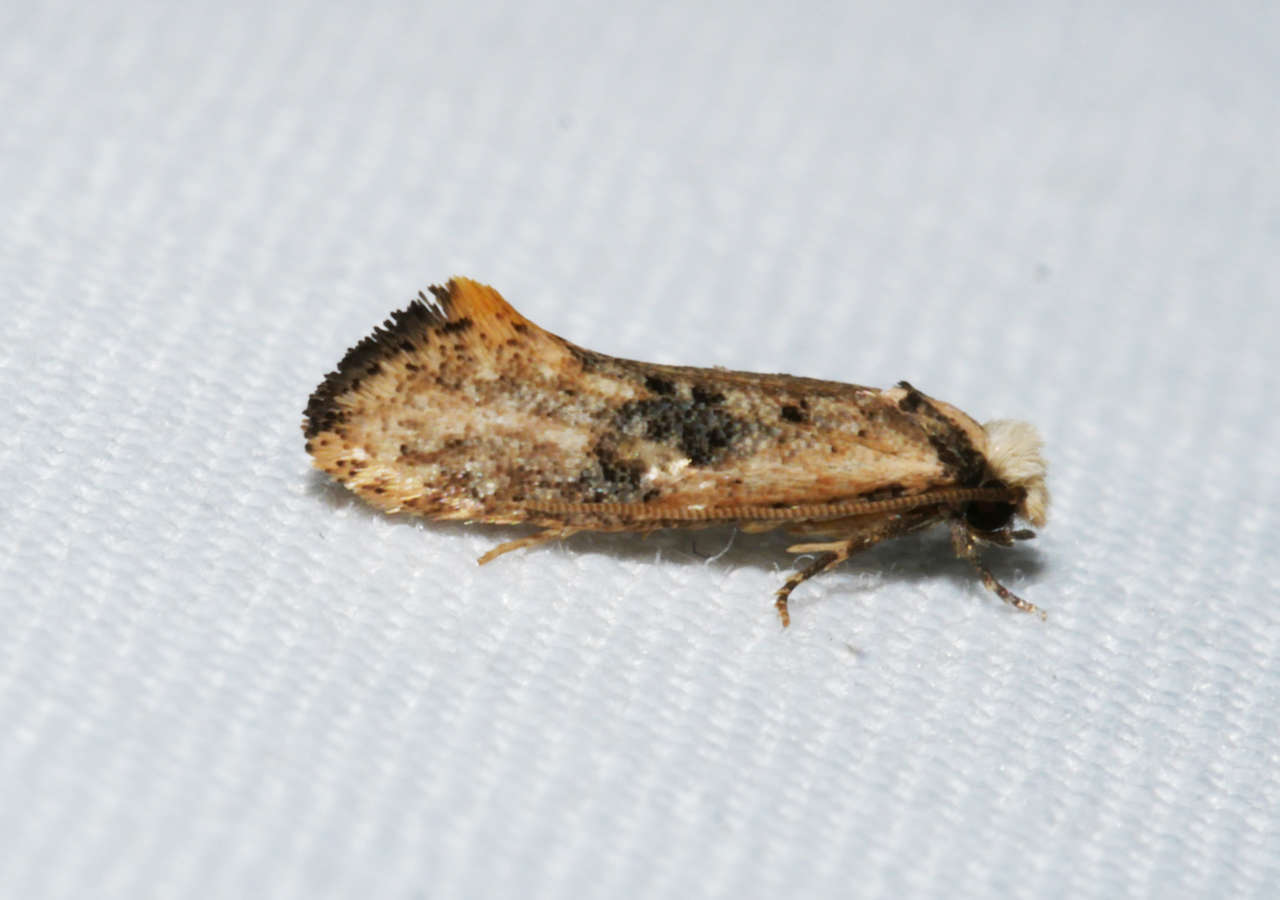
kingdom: Animalia
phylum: Arthropoda
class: Insecta
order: Lepidoptera
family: Tineidae
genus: Monopis
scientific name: Monopis argillacea
